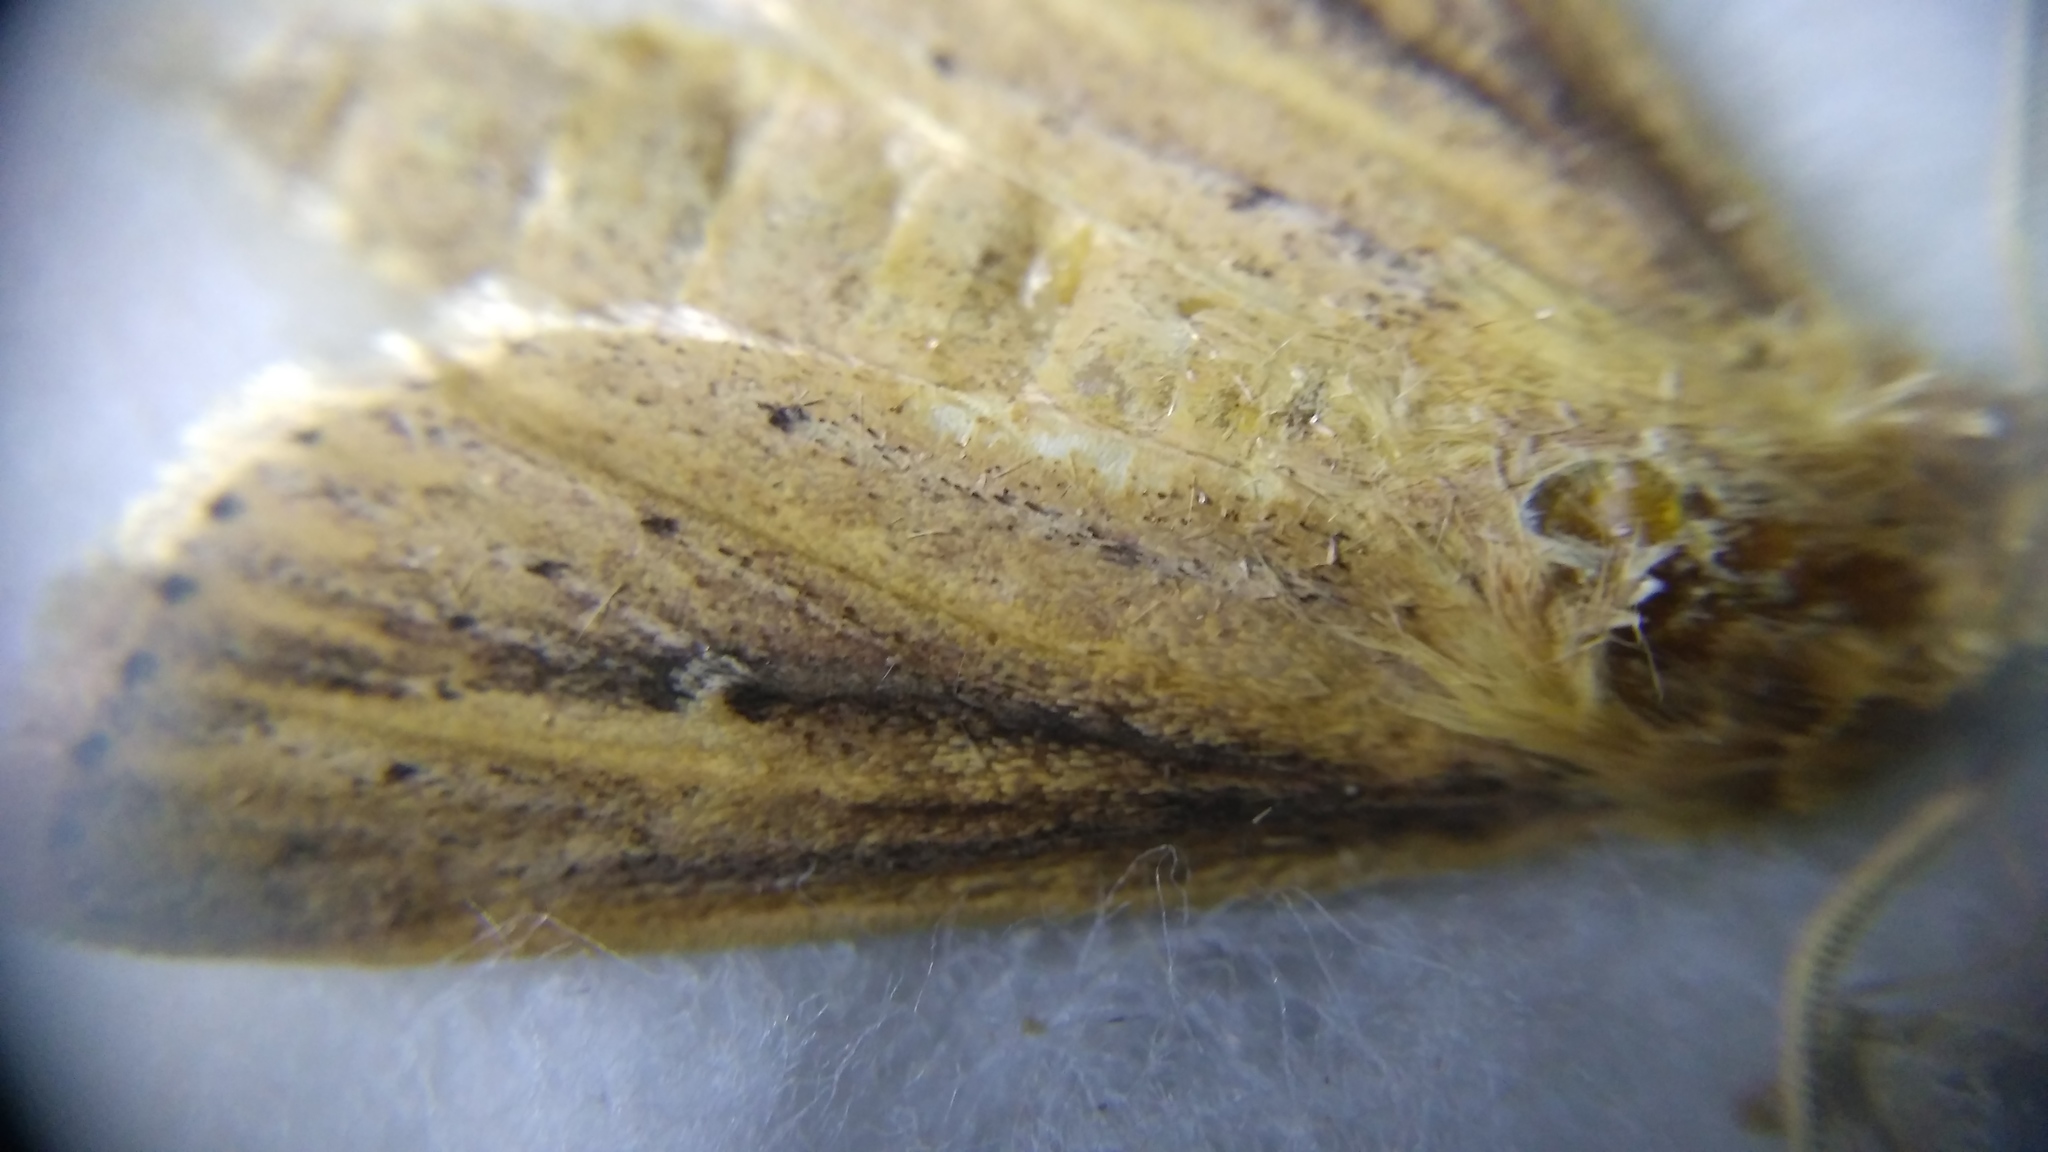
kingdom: Animalia
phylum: Arthropoda
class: Insecta
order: Lepidoptera
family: Noctuidae
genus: Globia
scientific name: Globia sparganii
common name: Webb's wainscot
